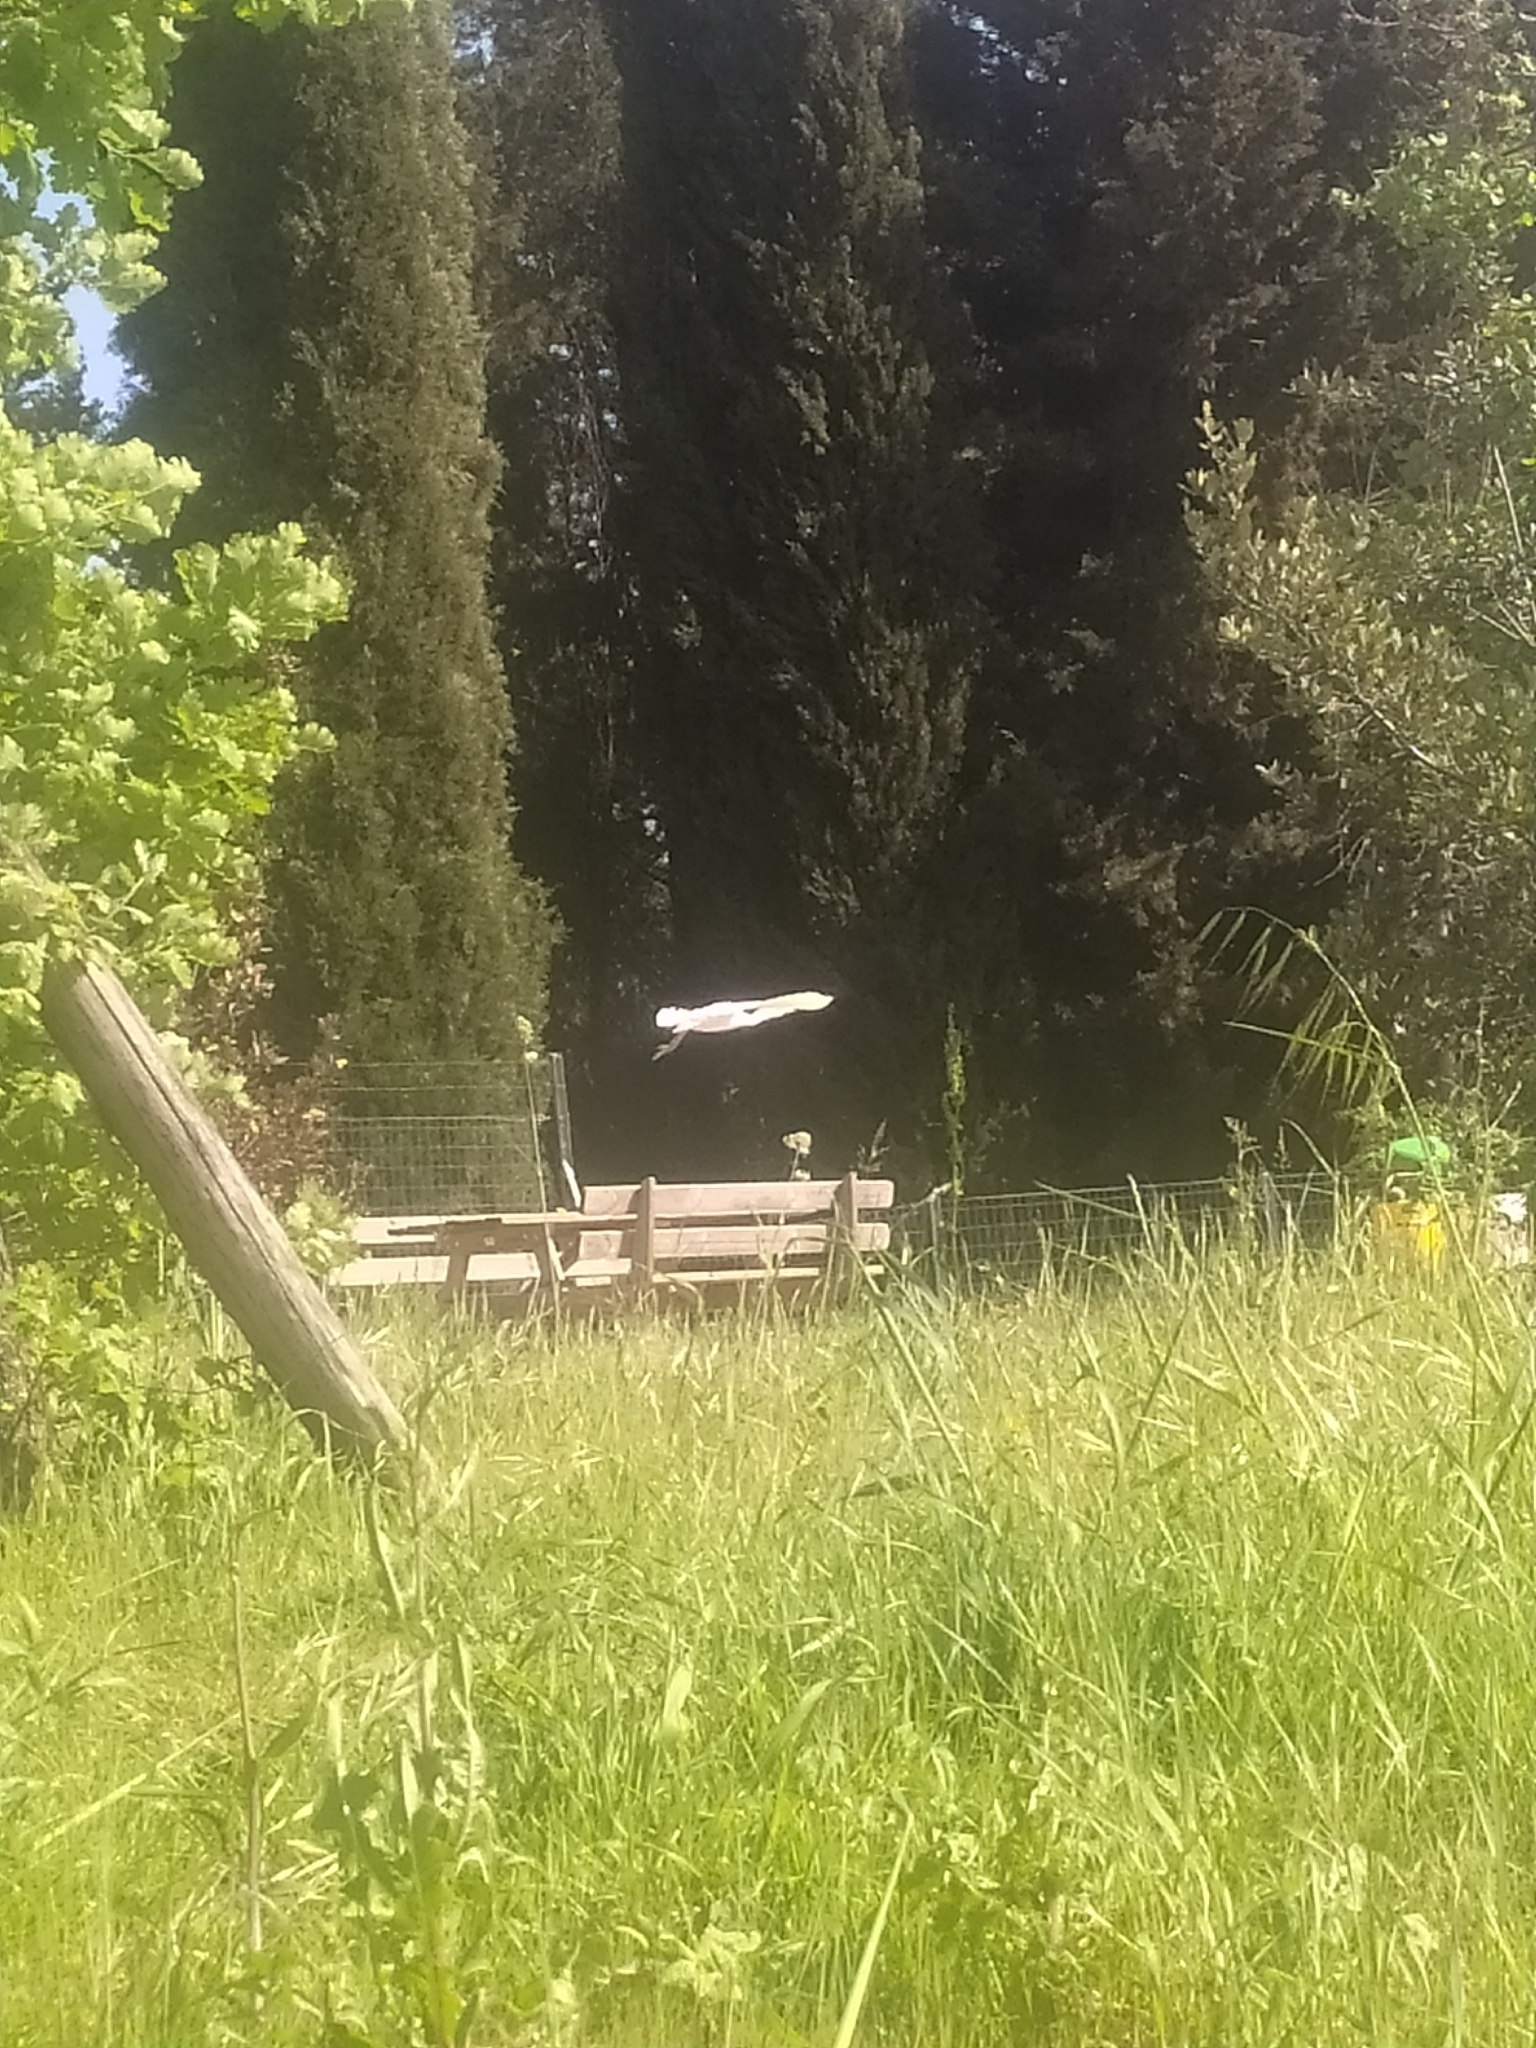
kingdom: Animalia
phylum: Chordata
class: Aves
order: Pelecaniformes
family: Ardeidae
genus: Ardea
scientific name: Ardea alba
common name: Great egret
